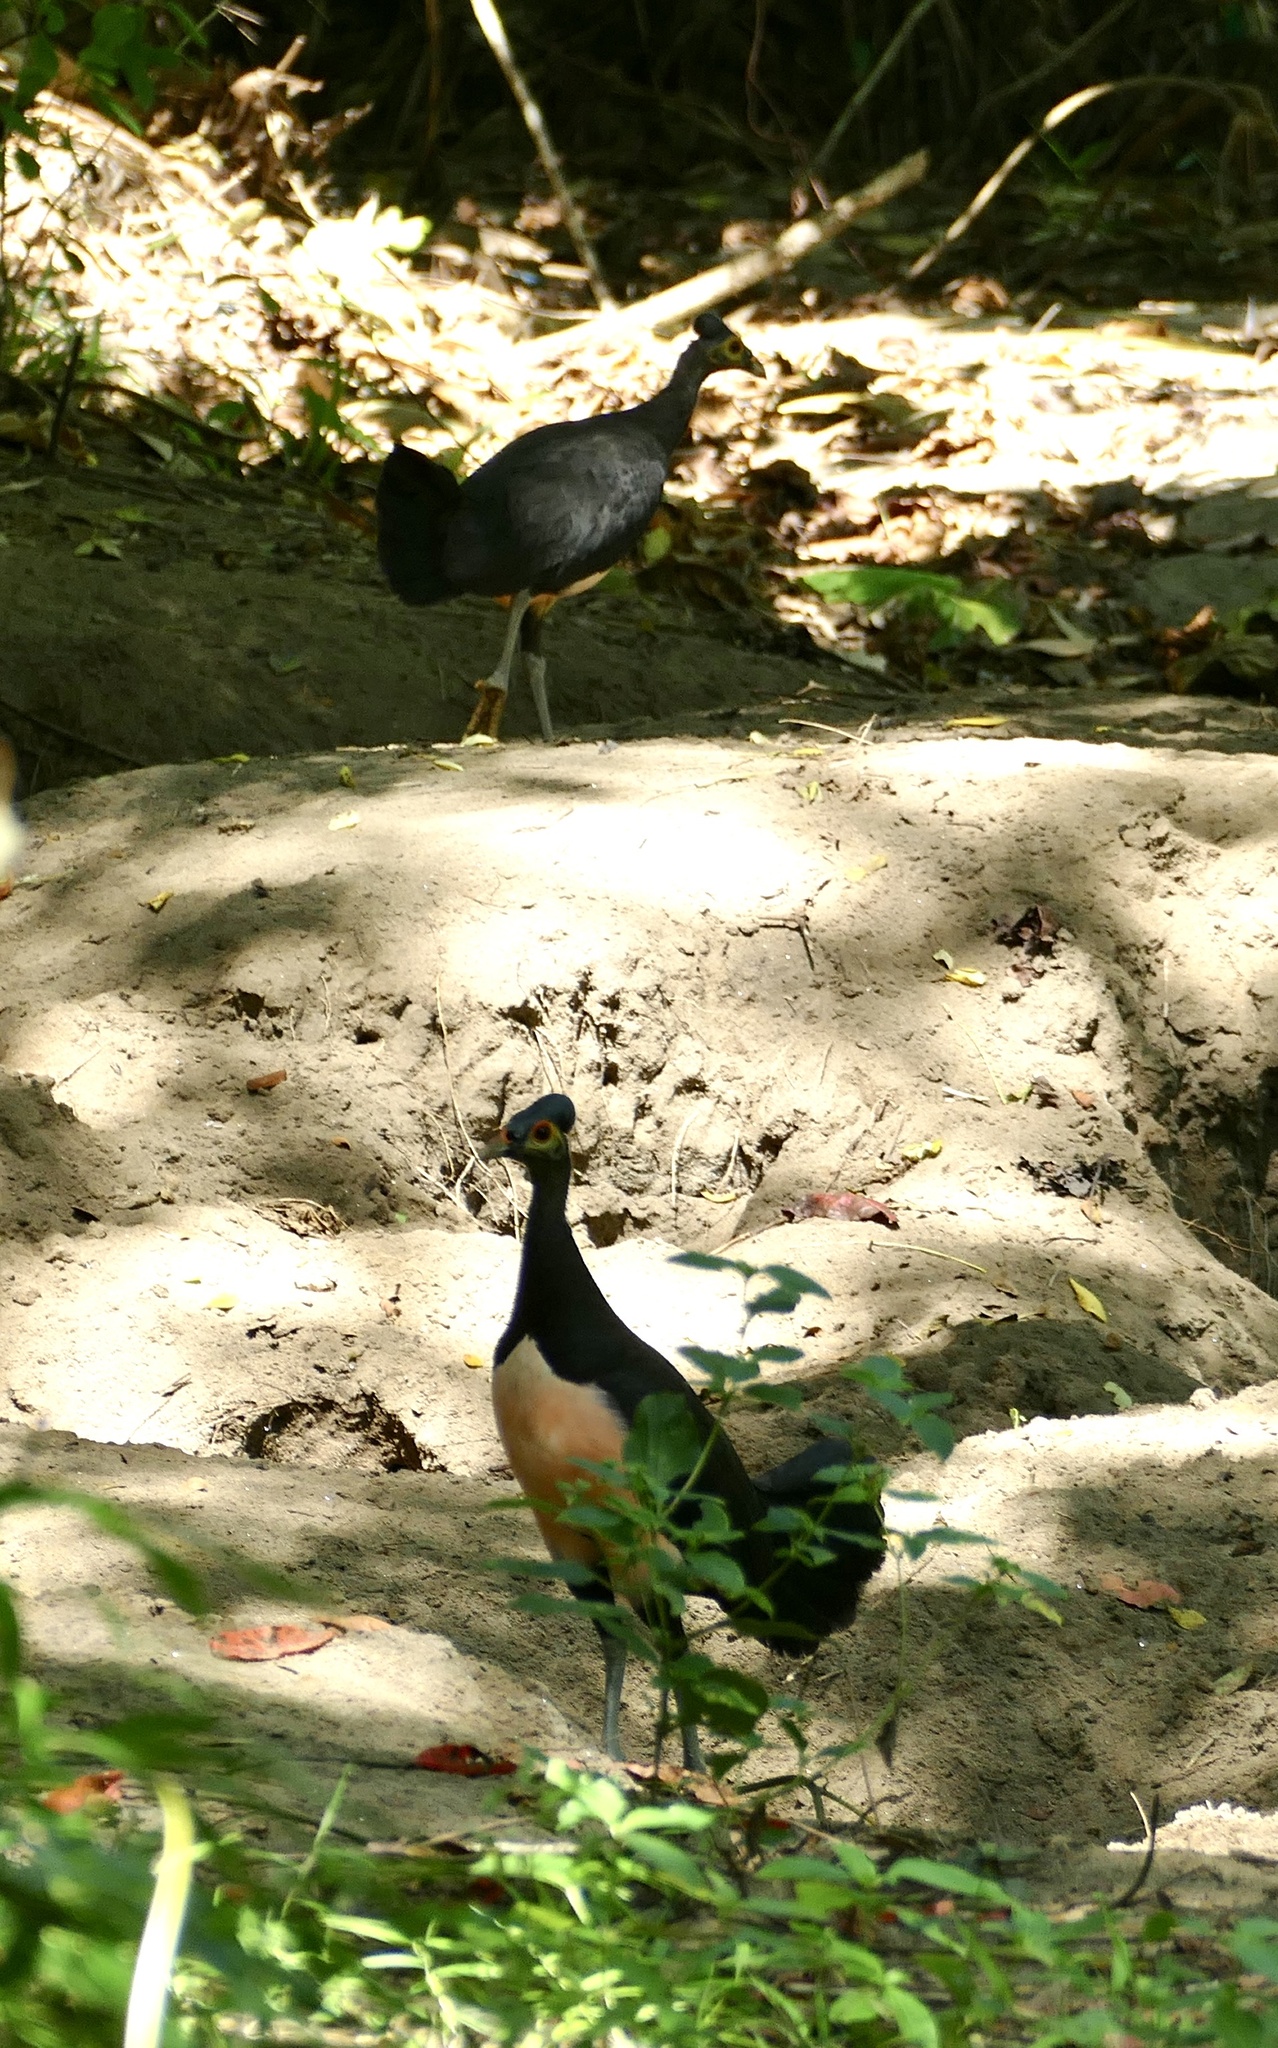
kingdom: Animalia
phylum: Chordata
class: Aves
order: Galliformes
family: Megapodiidae
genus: Macrocephalon
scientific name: Macrocephalon maleo
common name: Maleo
